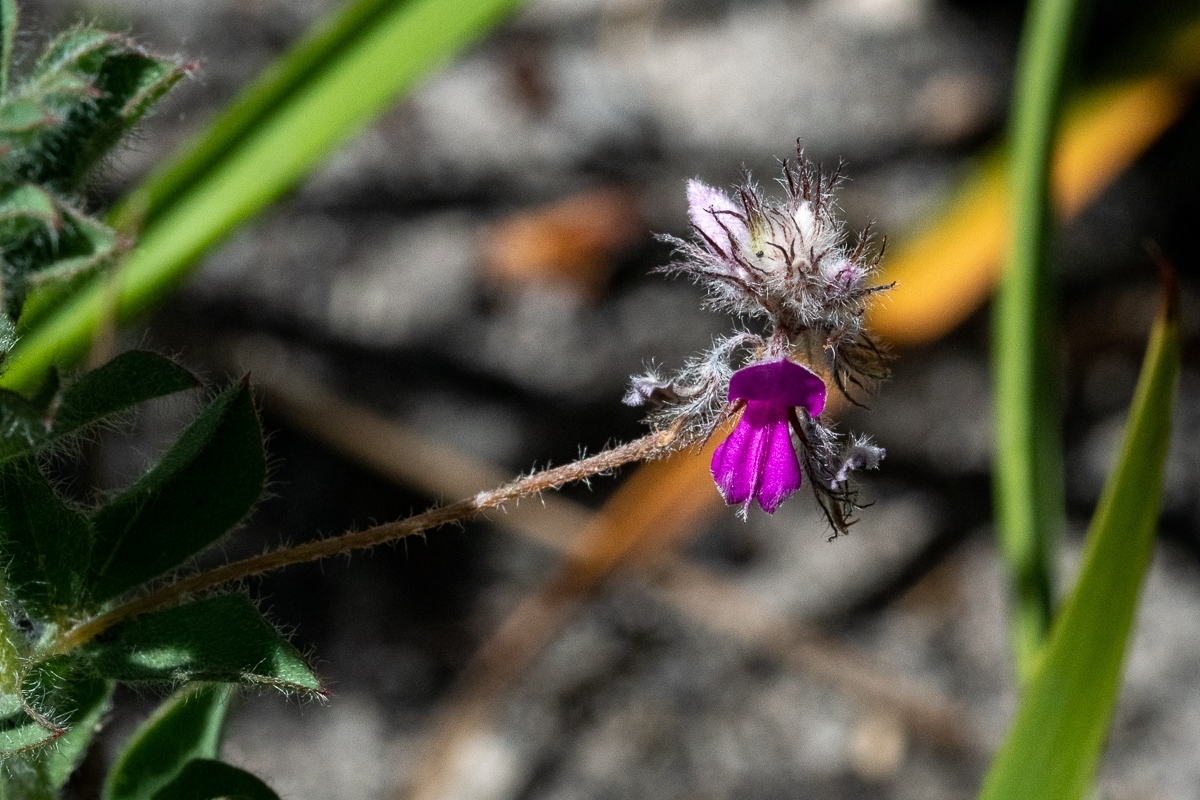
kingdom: Plantae
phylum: Tracheophyta
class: Magnoliopsida
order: Fabales
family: Fabaceae
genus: Indigofera
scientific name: Indigofera alopecuroides
